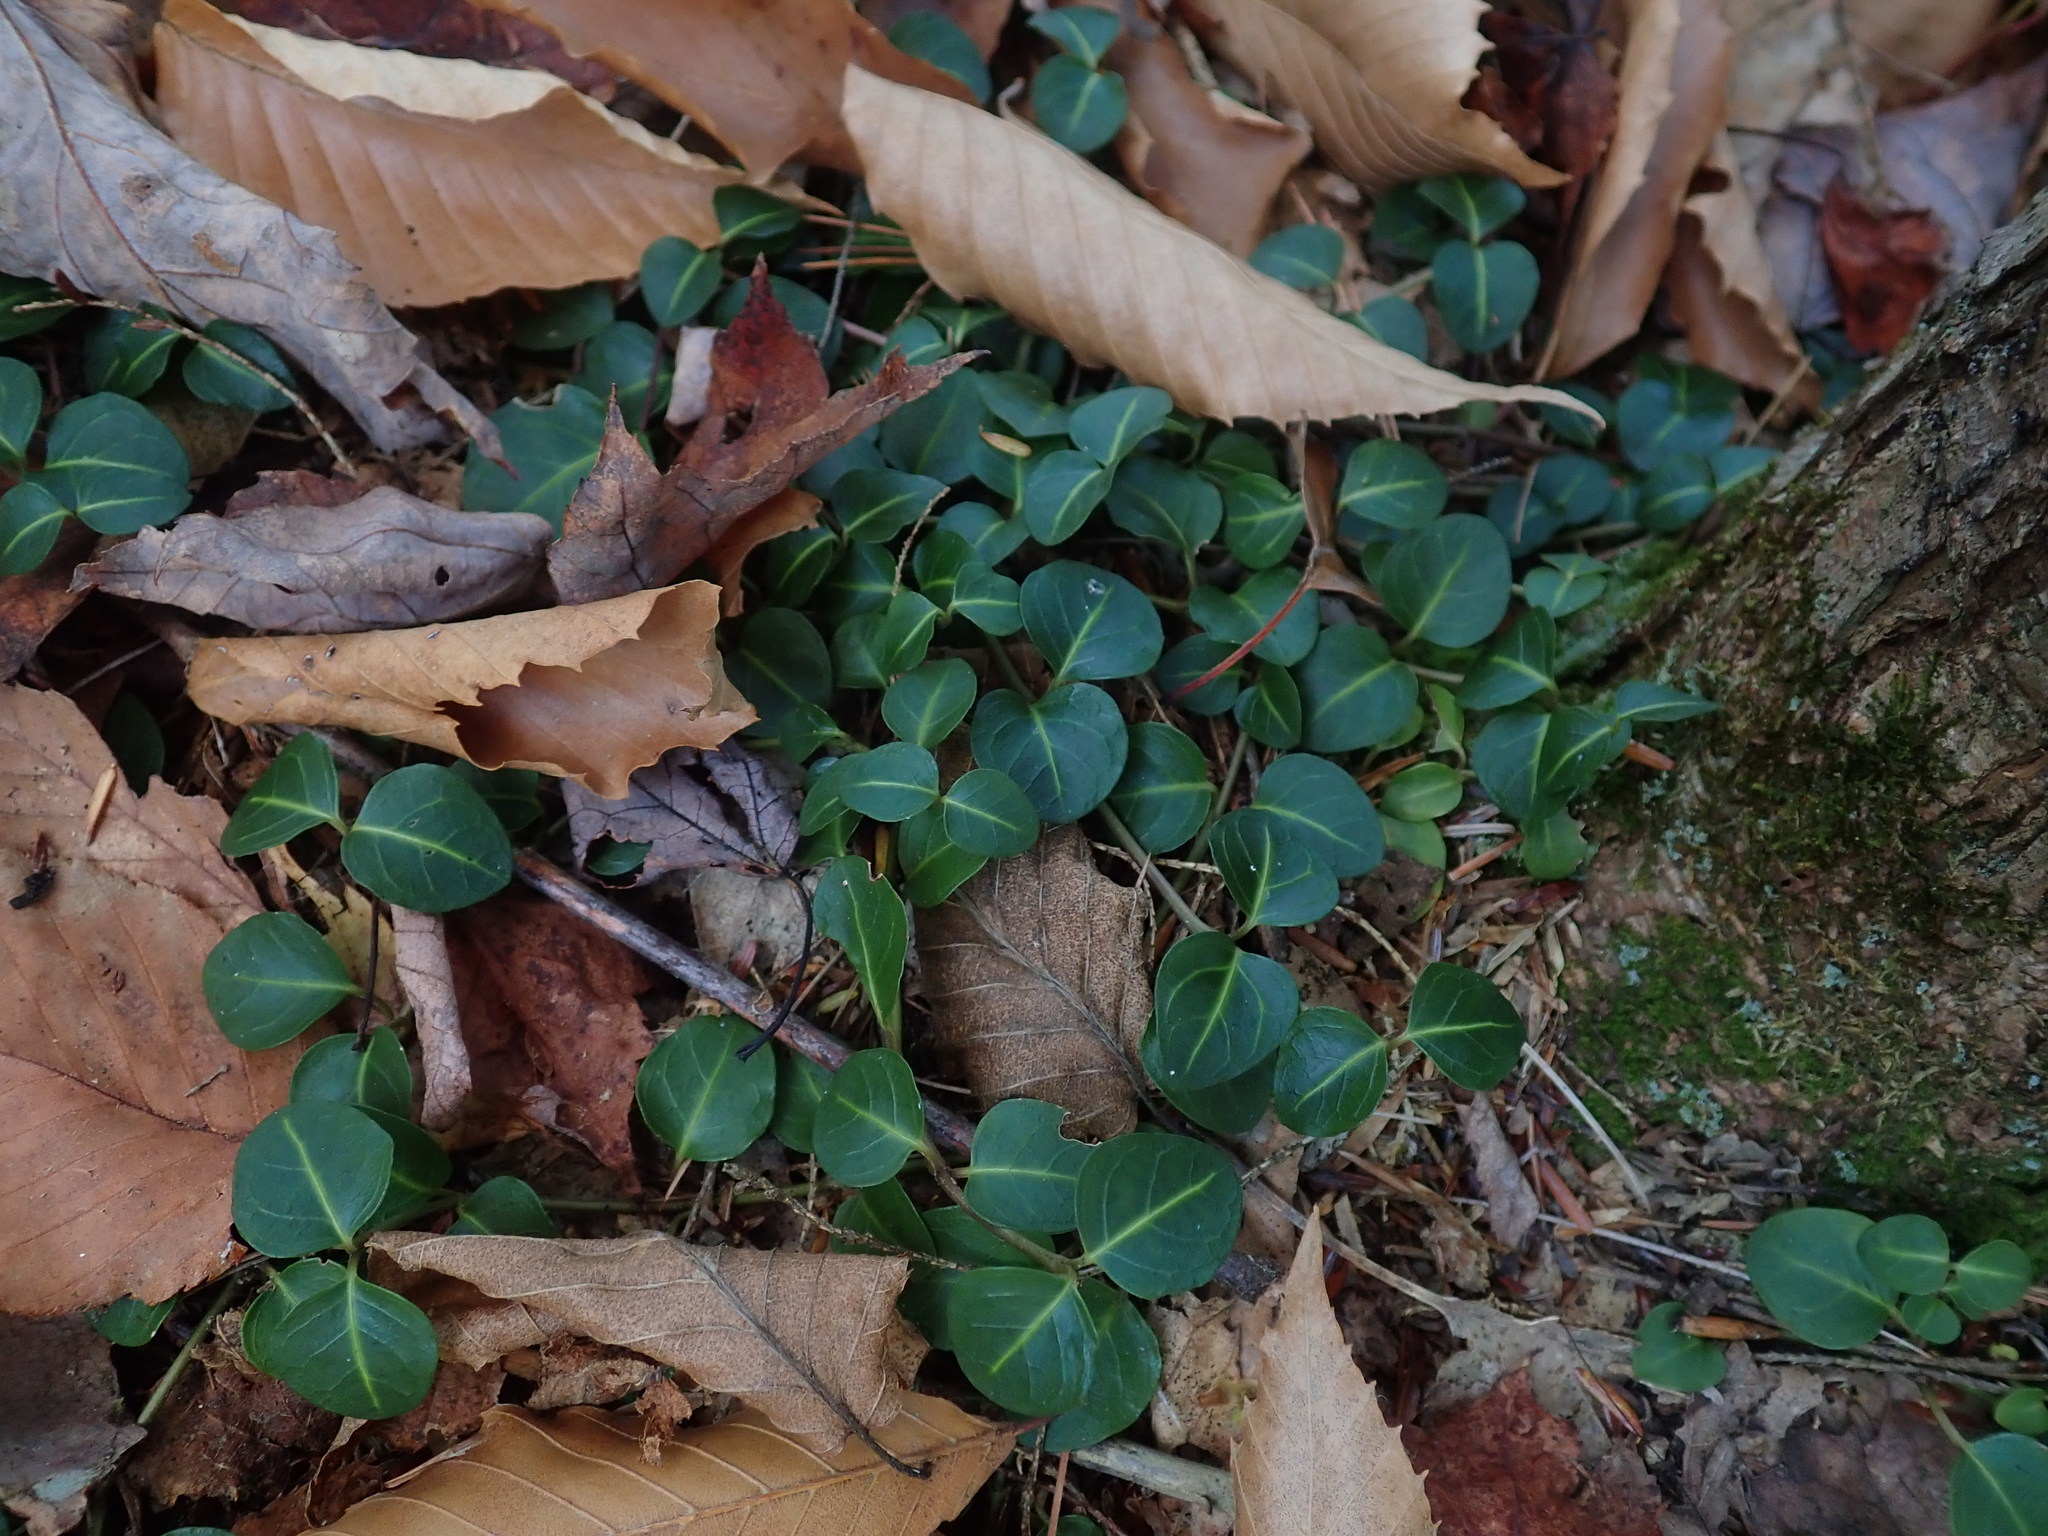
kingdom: Plantae
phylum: Tracheophyta
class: Magnoliopsida
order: Gentianales
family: Rubiaceae
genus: Mitchella
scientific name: Mitchella repens
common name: Partridge-berry
